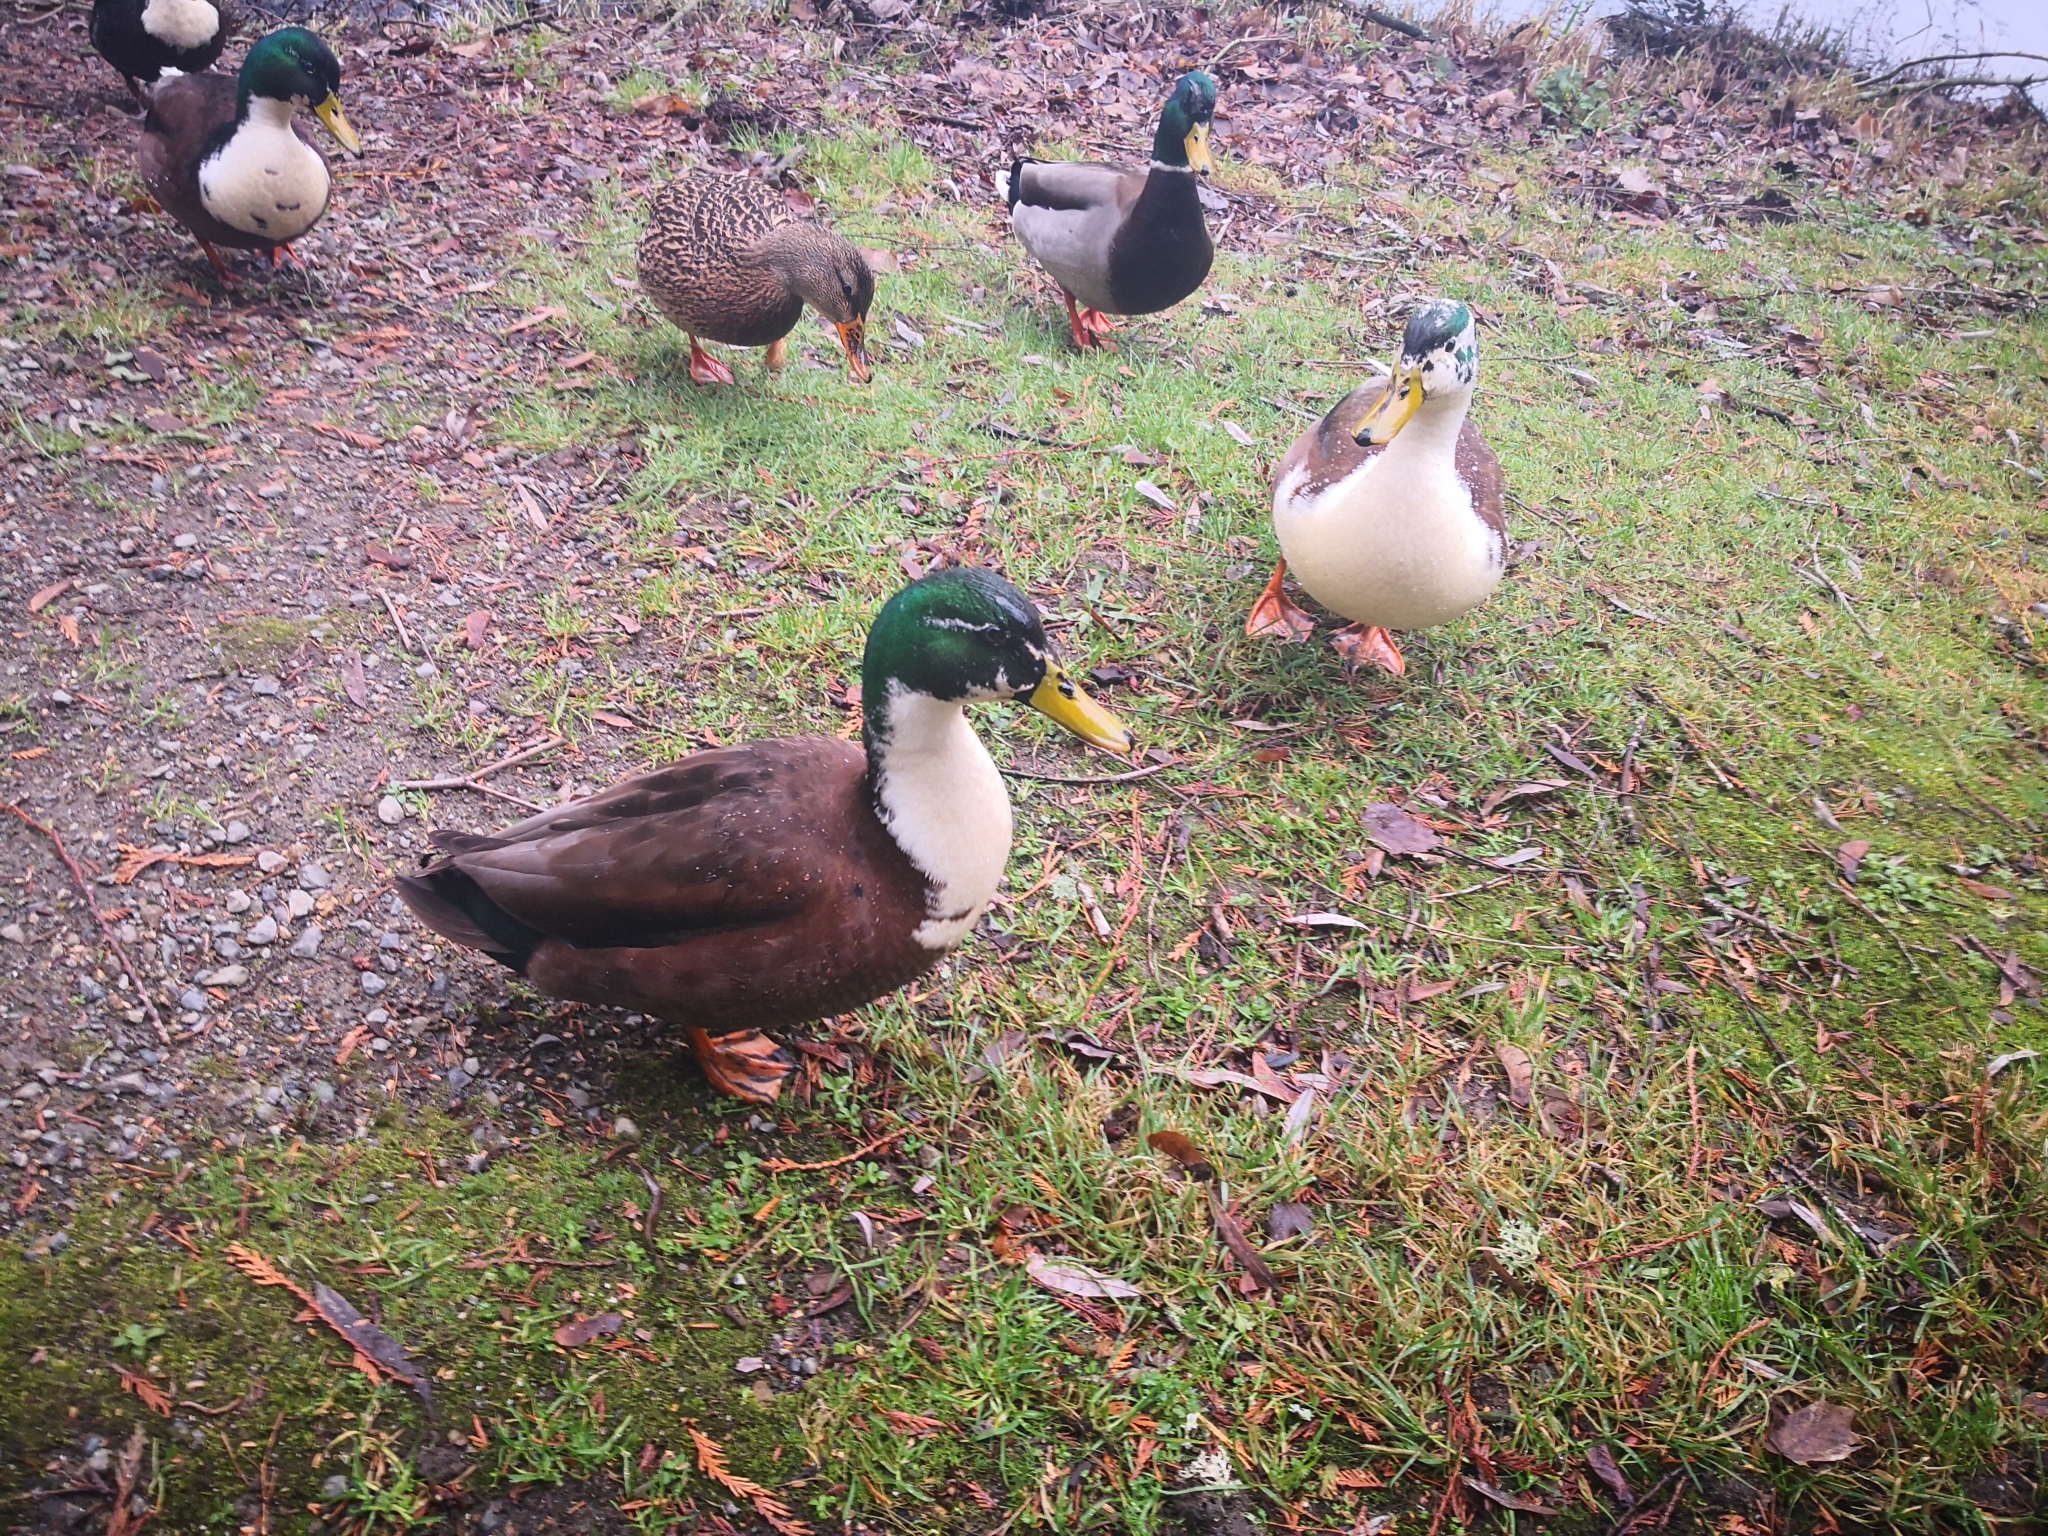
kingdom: Animalia
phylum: Chordata
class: Aves
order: Anseriformes
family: Anatidae
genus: Anas
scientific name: Anas platyrhynchos
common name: Mallard
